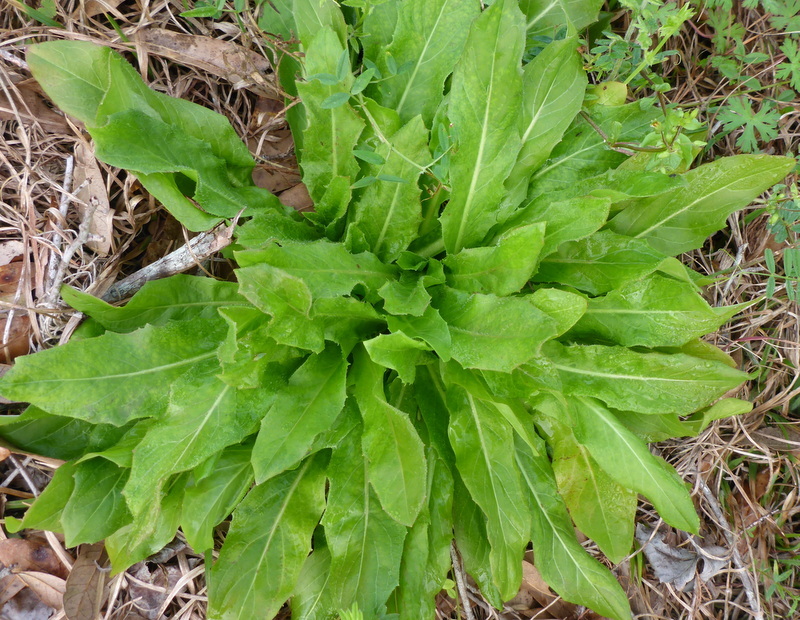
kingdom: Plantae
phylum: Tracheophyta
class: Magnoliopsida
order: Asterales
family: Asteraceae
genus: Hypochaeris
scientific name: Hypochaeris chillensis
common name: Brazilian cat's ear
